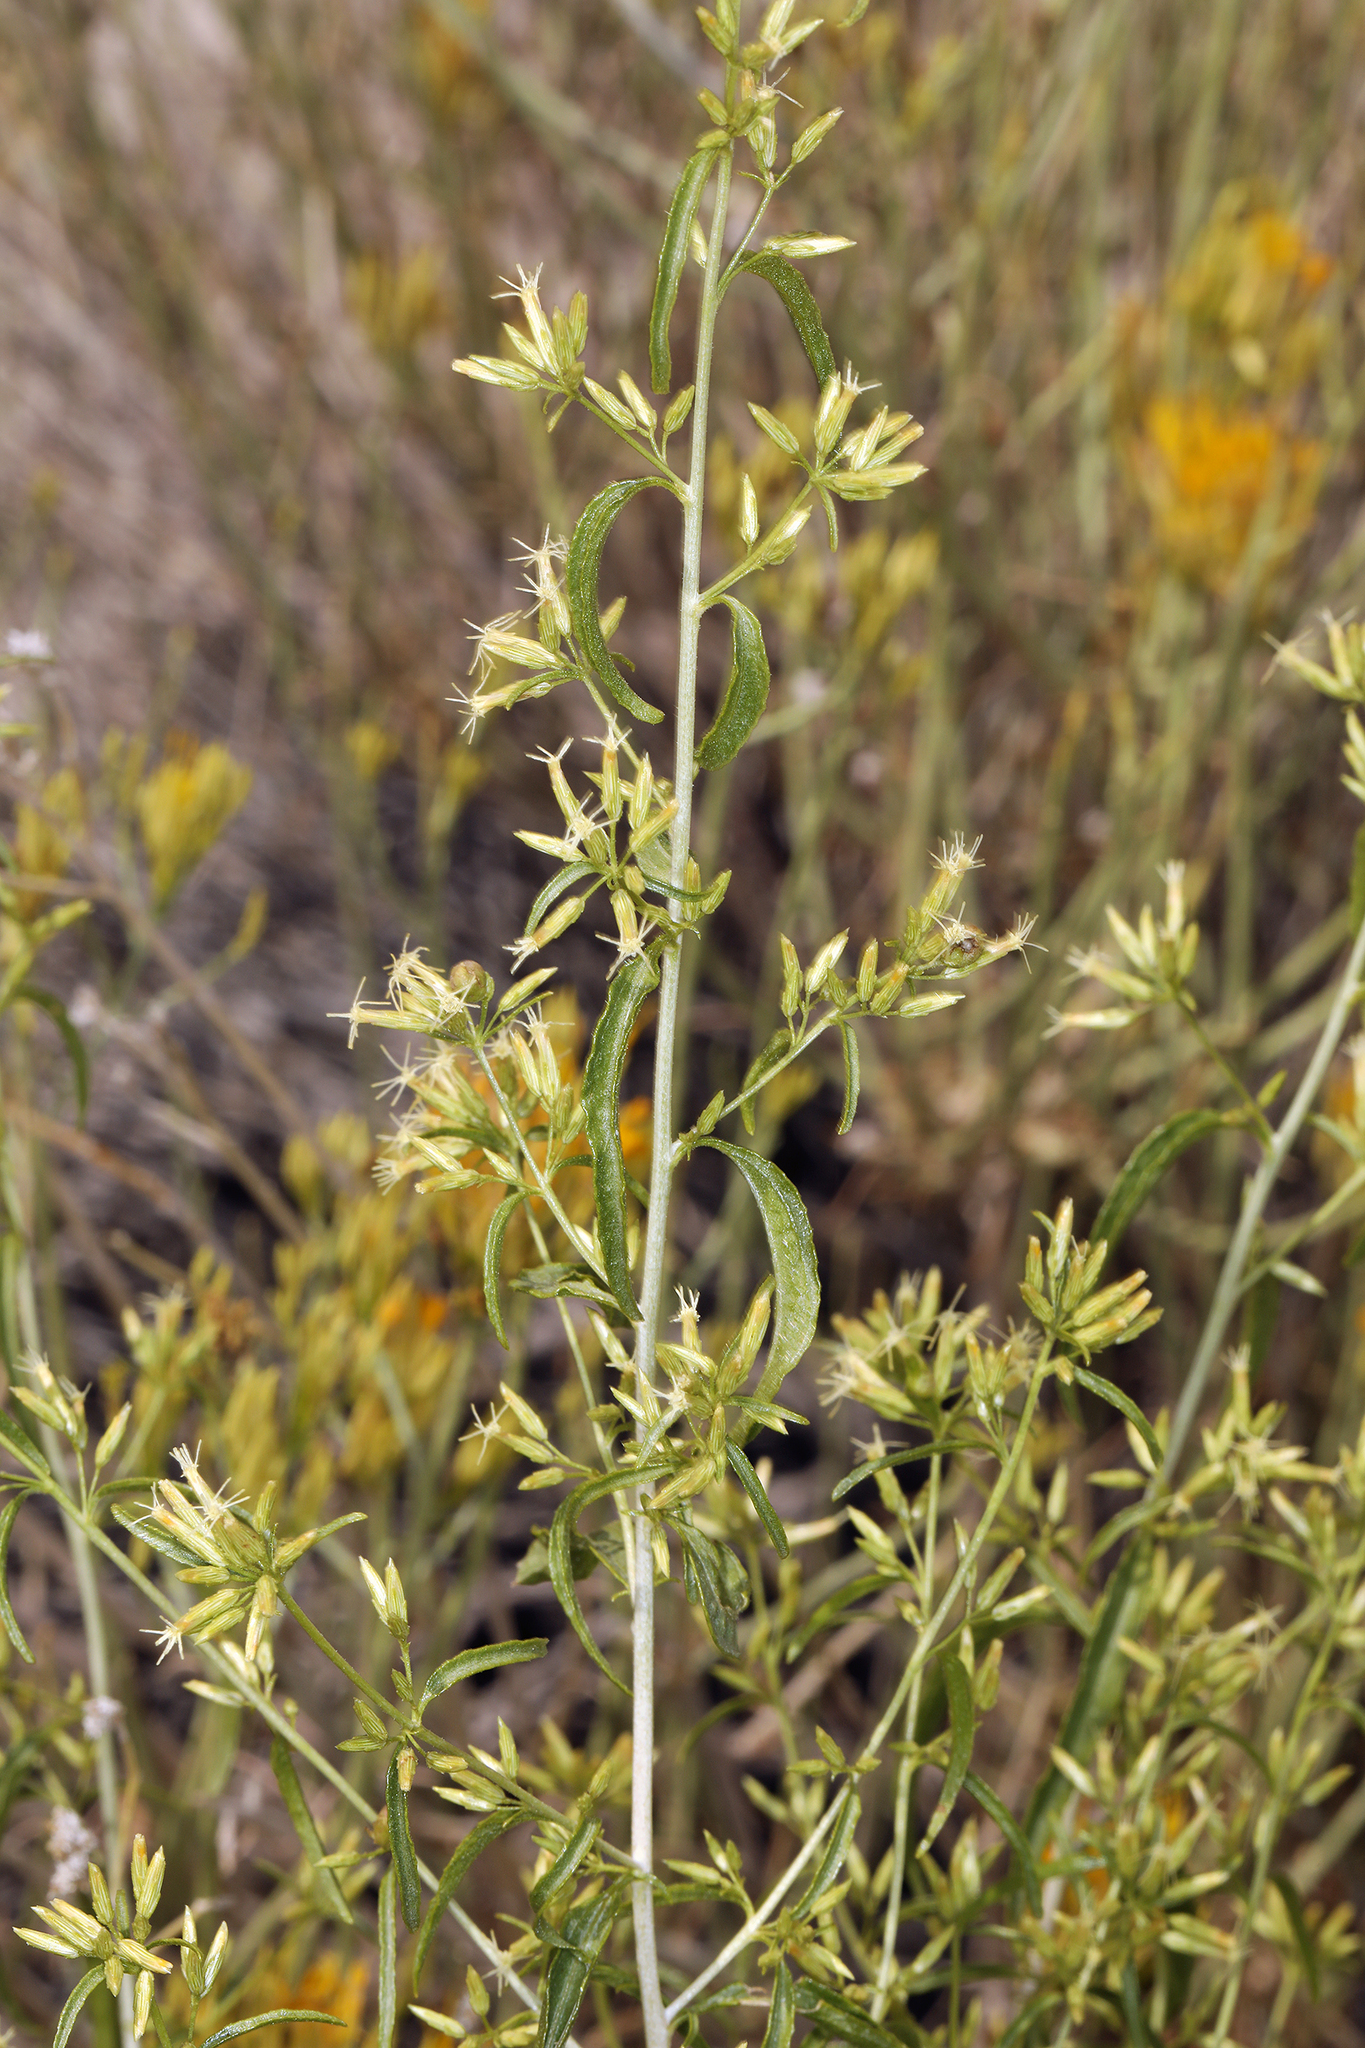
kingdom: Plantae
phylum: Tracheophyta
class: Magnoliopsida
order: Asterales
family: Asteraceae
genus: Brickellia
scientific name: Brickellia longifolia
